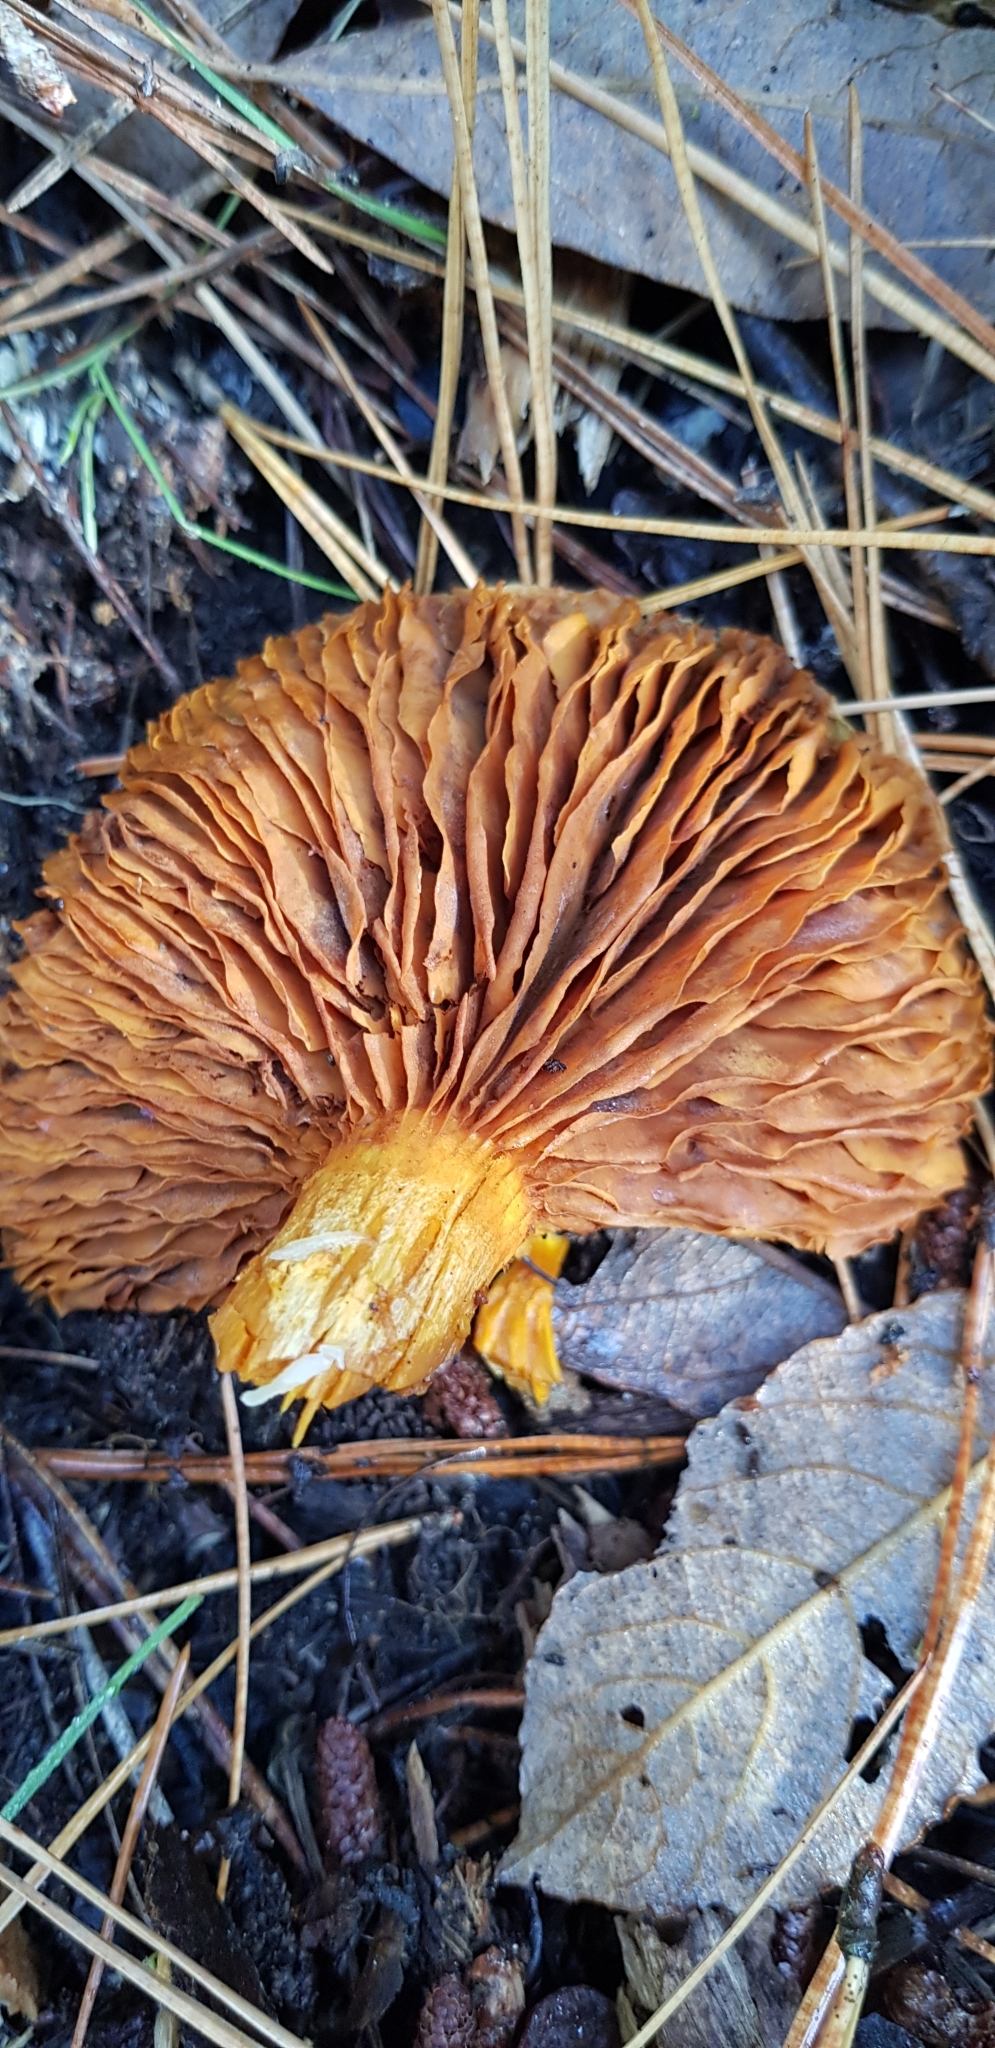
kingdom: Fungi
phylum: Basidiomycota
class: Agaricomycetes
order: Agaricales
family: Hymenogastraceae
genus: Gymnopilus
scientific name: Gymnopilus junonius
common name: Spectacular rustgill
